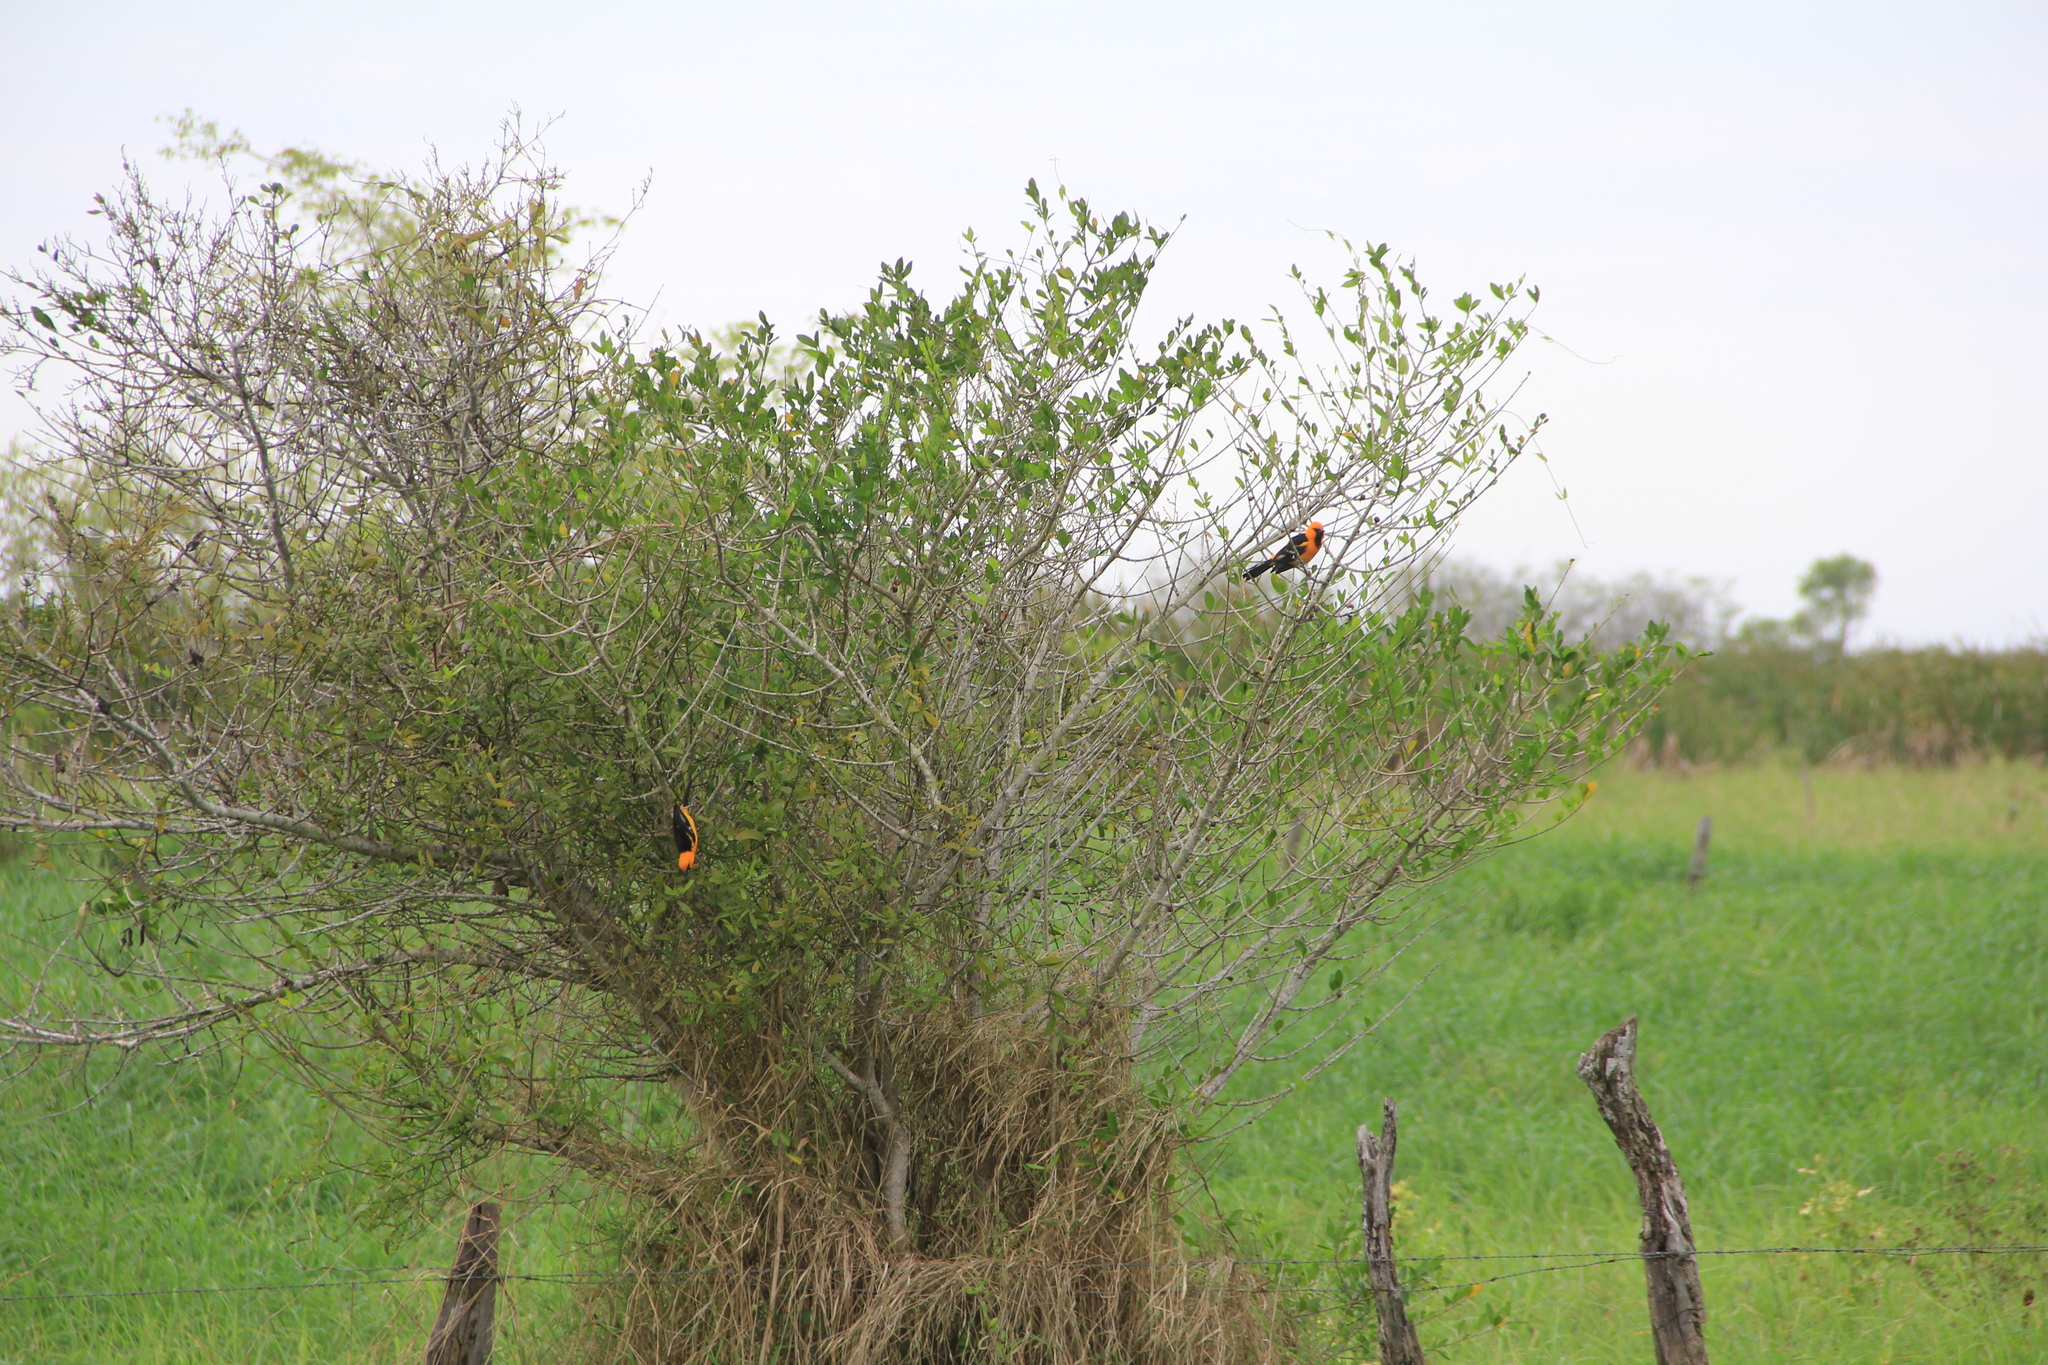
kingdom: Animalia
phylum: Chordata
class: Aves
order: Passeriformes
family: Icteridae
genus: Icterus
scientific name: Icterus gularis
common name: Altamira oriole
